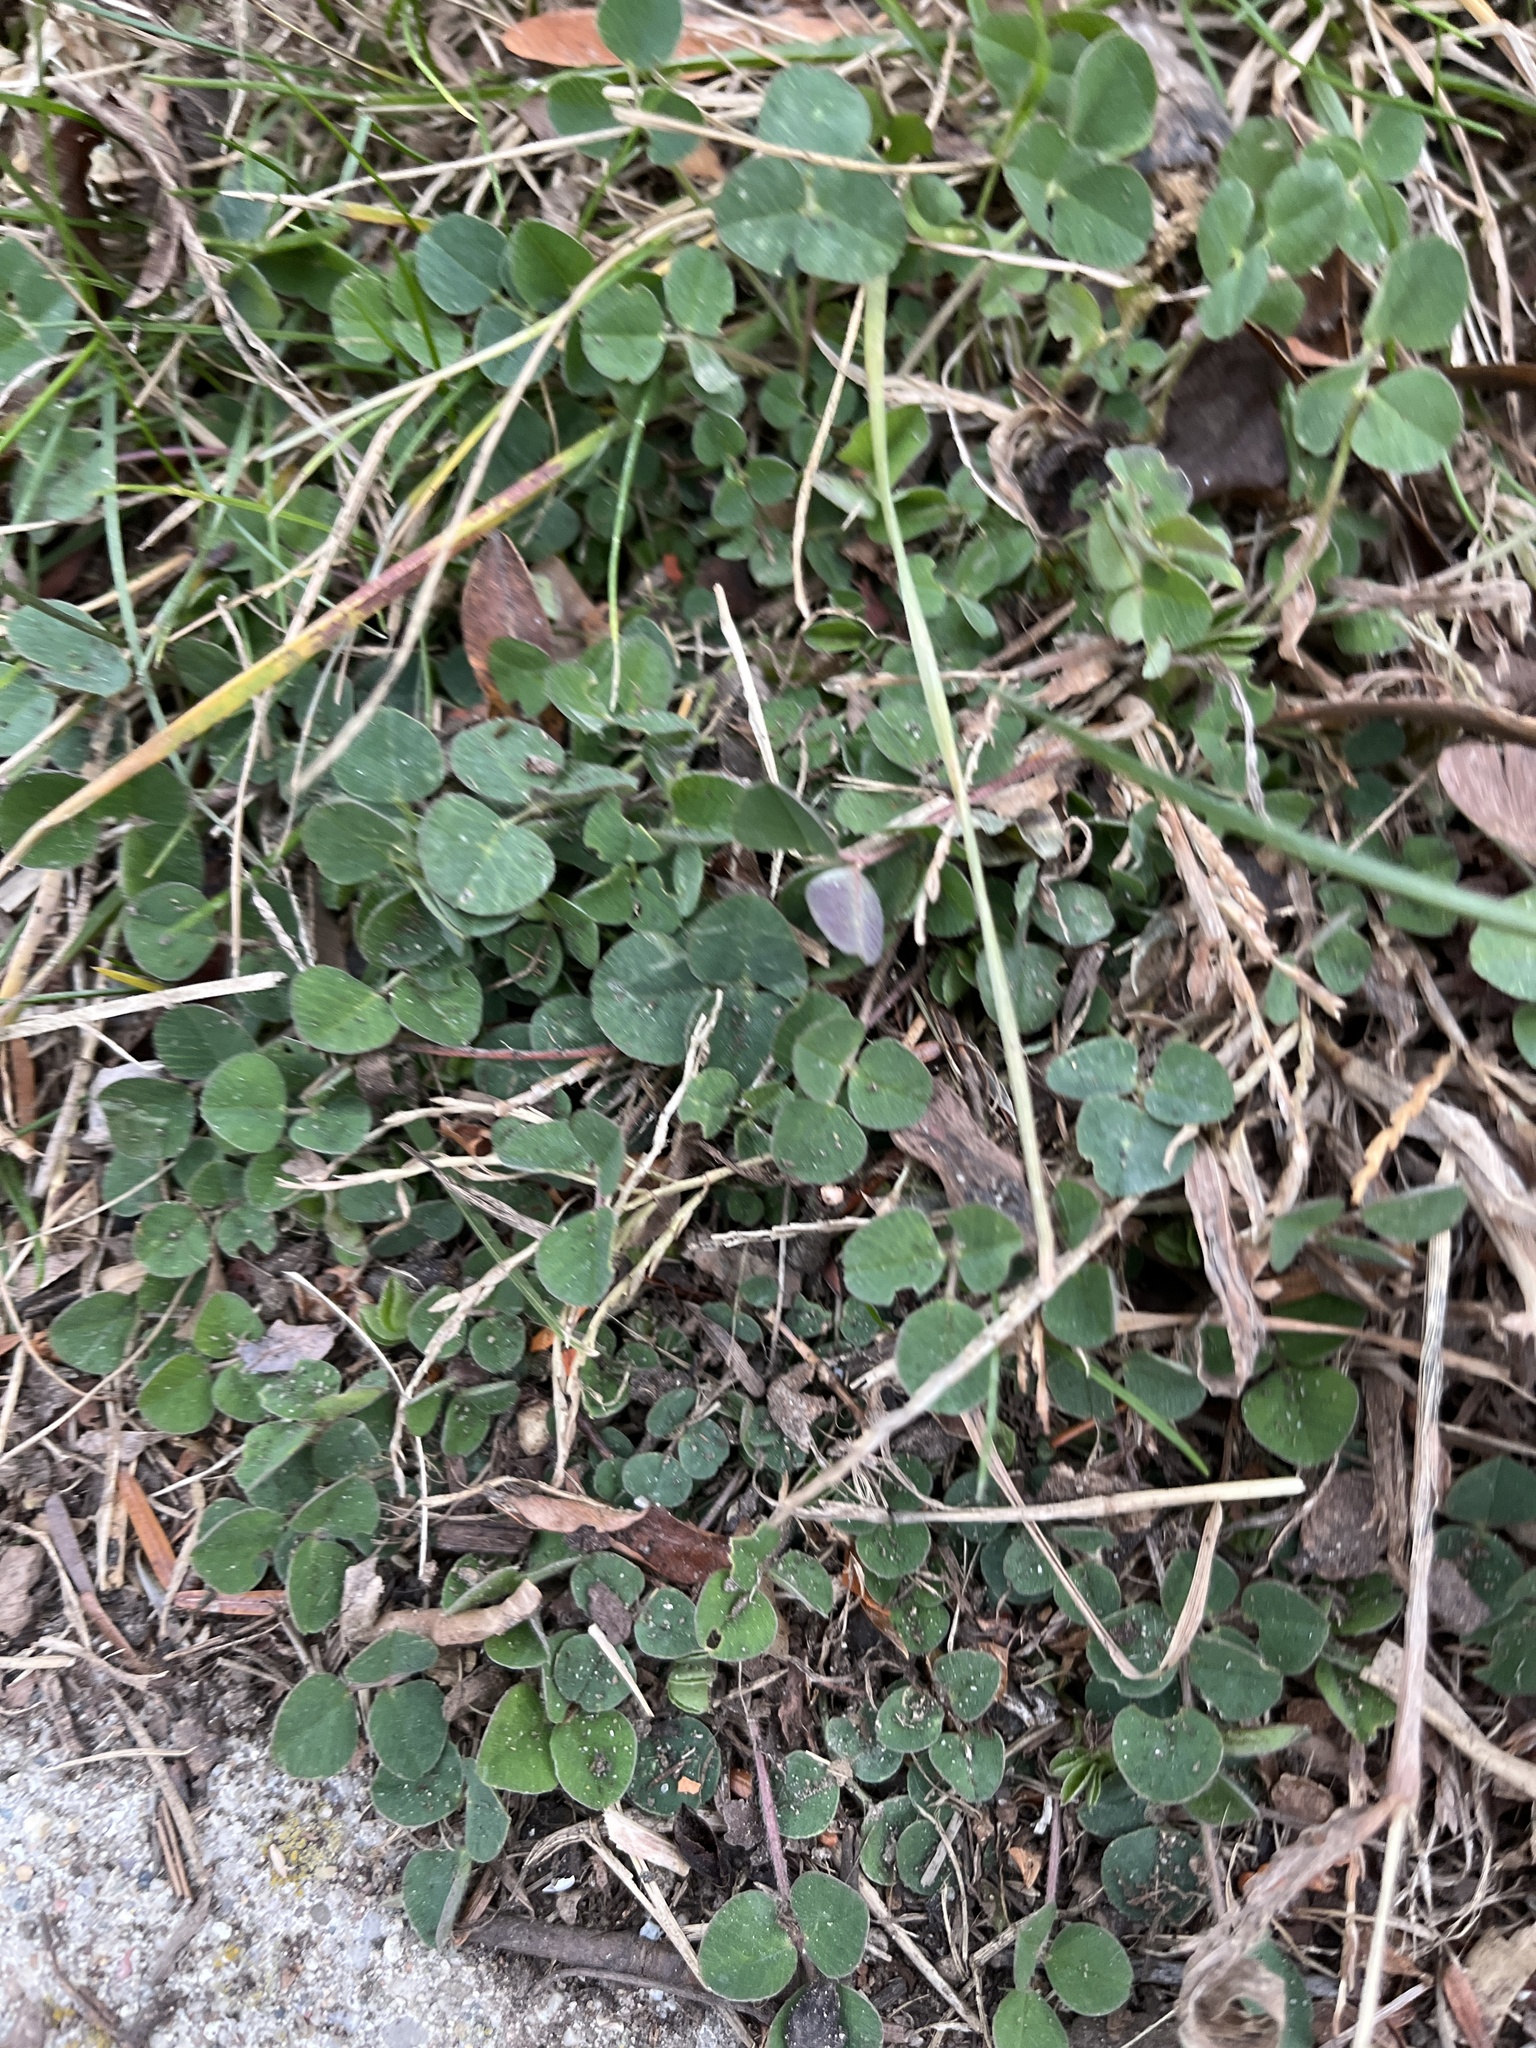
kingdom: Plantae
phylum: Tracheophyta
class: Magnoliopsida
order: Fabales
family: Fabaceae
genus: Medicago
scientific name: Medicago lupulina
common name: Black medick
